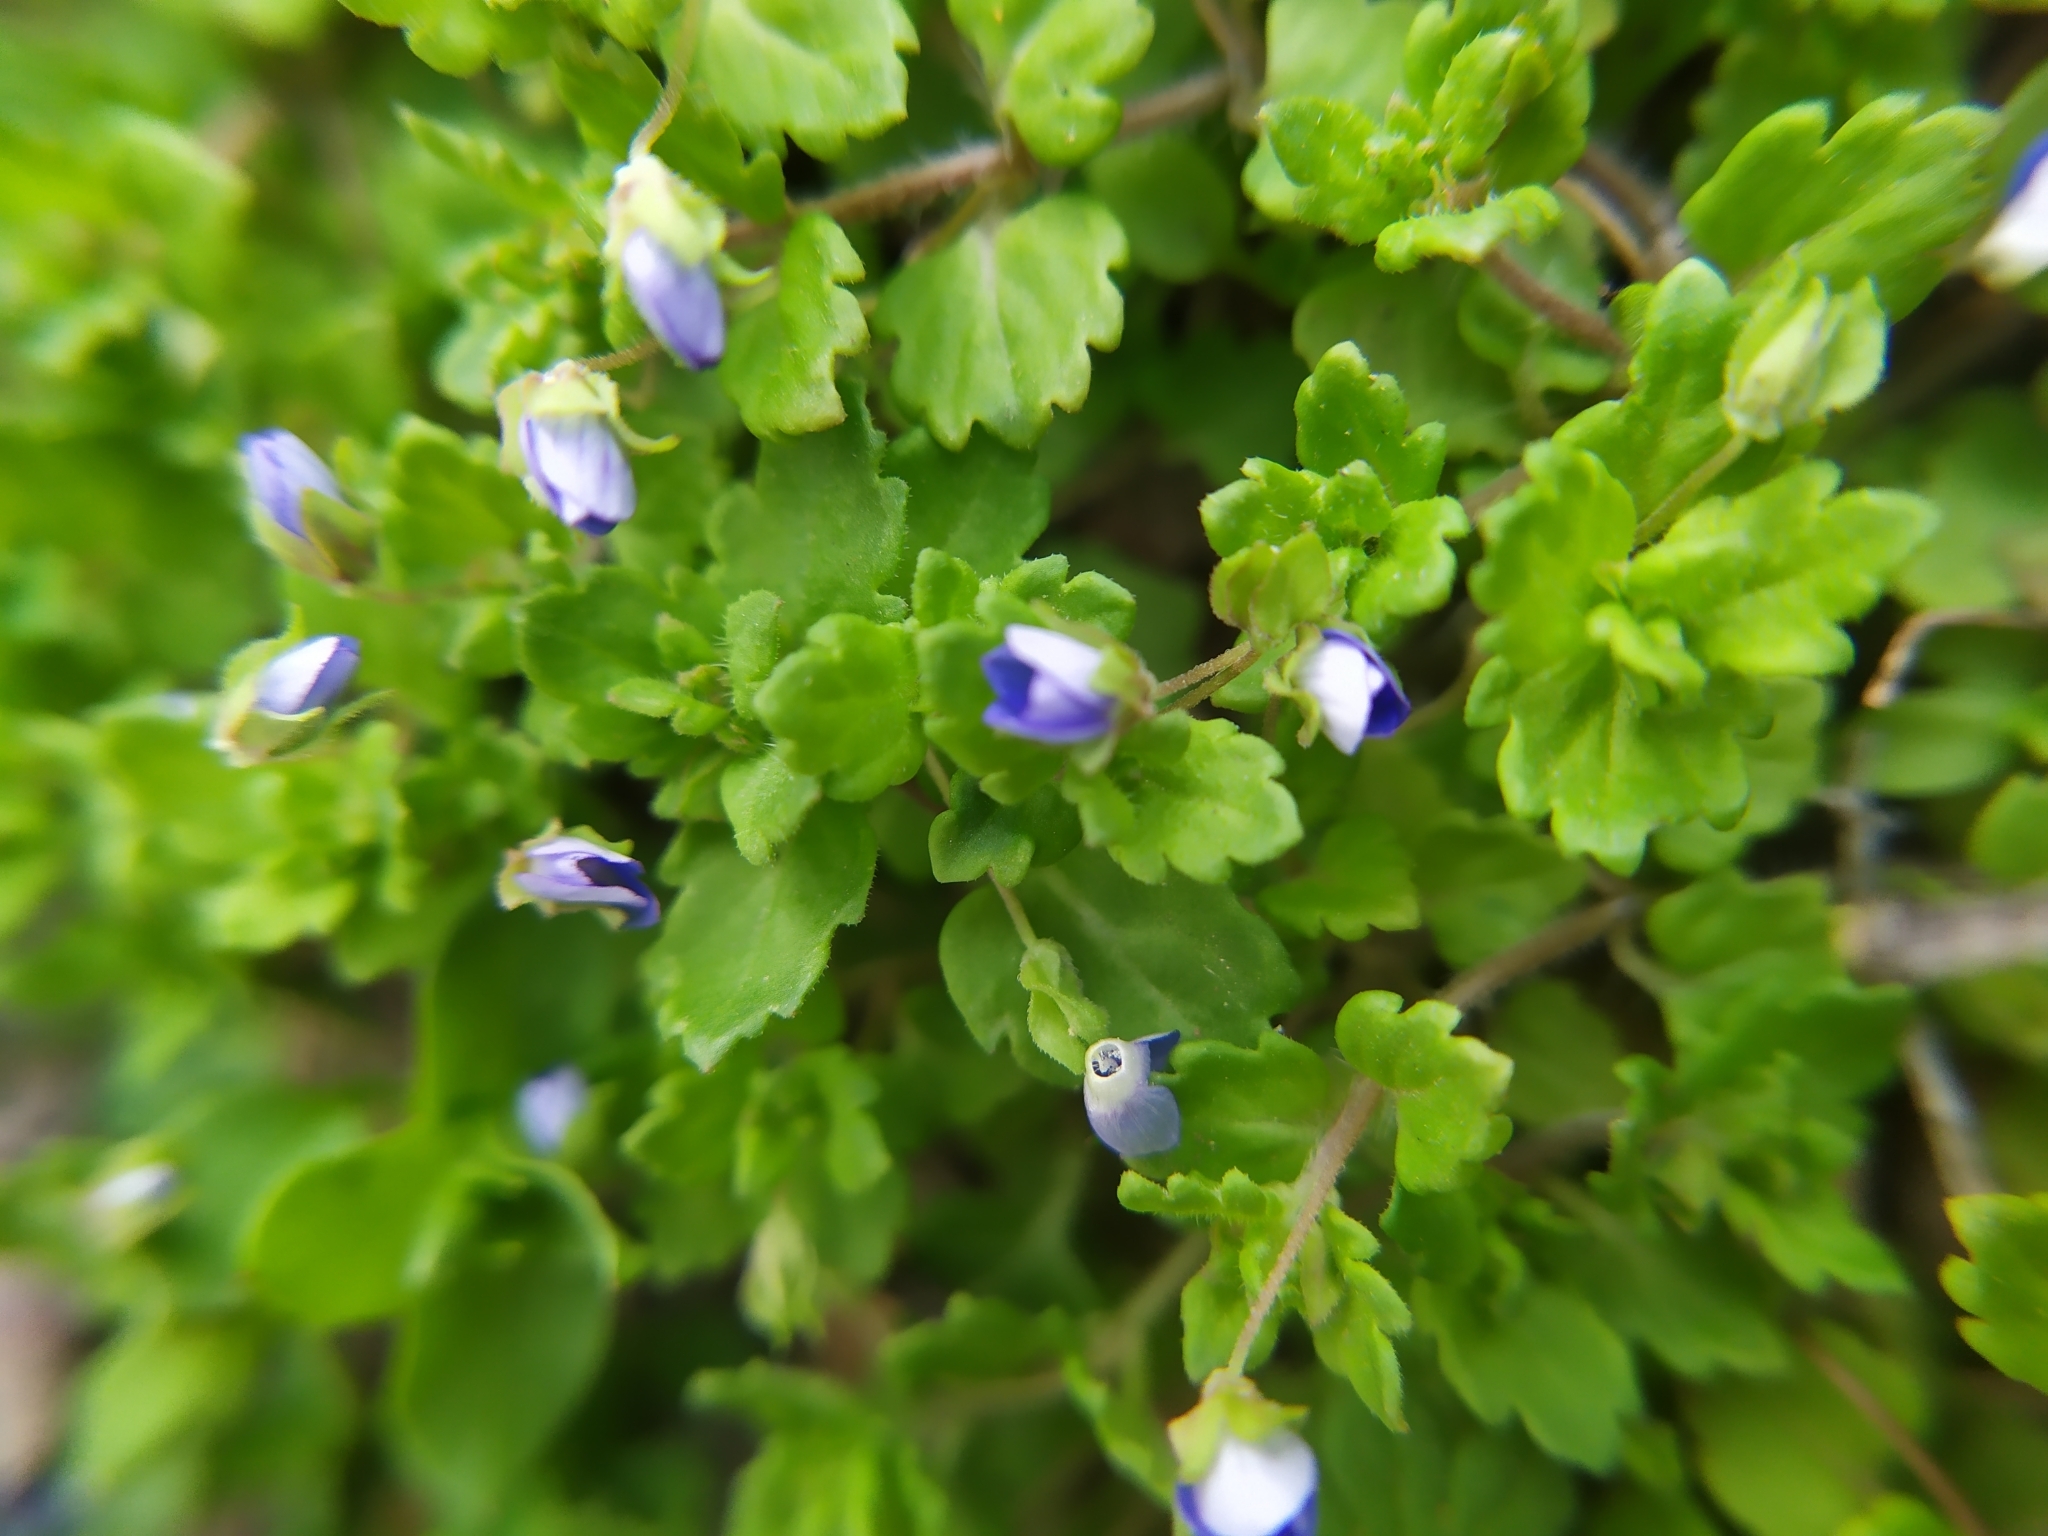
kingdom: Plantae
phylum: Tracheophyta
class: Magnoliopsida
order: Lamiales
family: Plantaginaceae
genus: Veronica
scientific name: Veronica polita
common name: Grey field-speedwell
